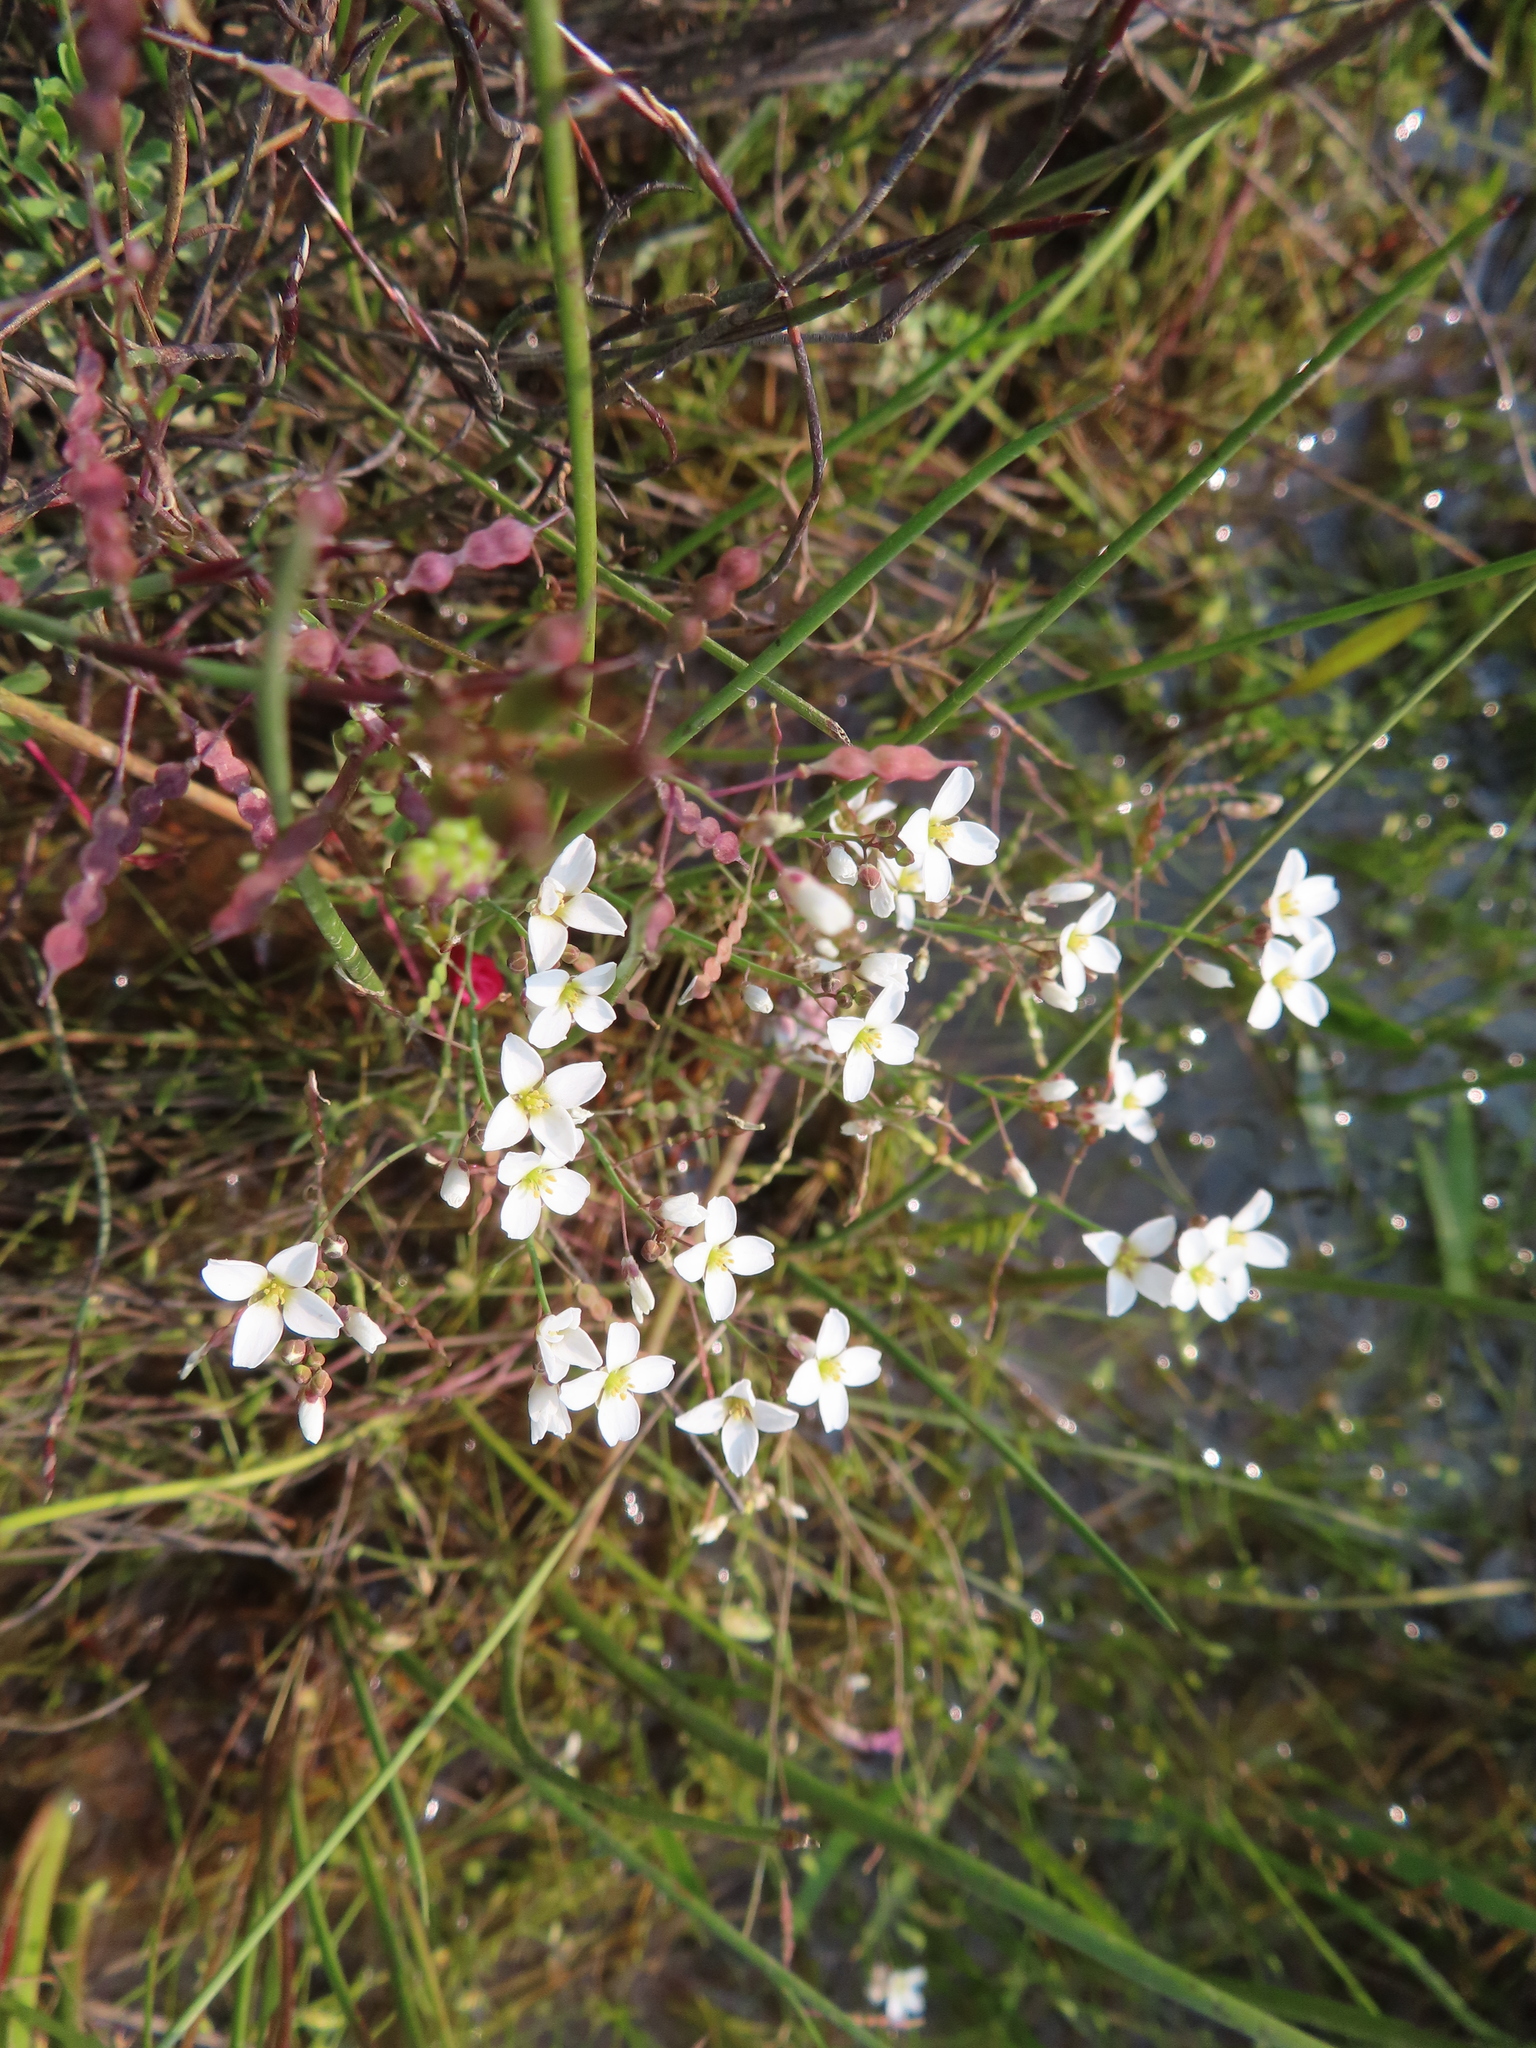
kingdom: Plantae
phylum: Tracheophyta
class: Magnoliopsida
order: Brassicales
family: Brassicaceae
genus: Heliophila
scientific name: Heliophila pusilla
